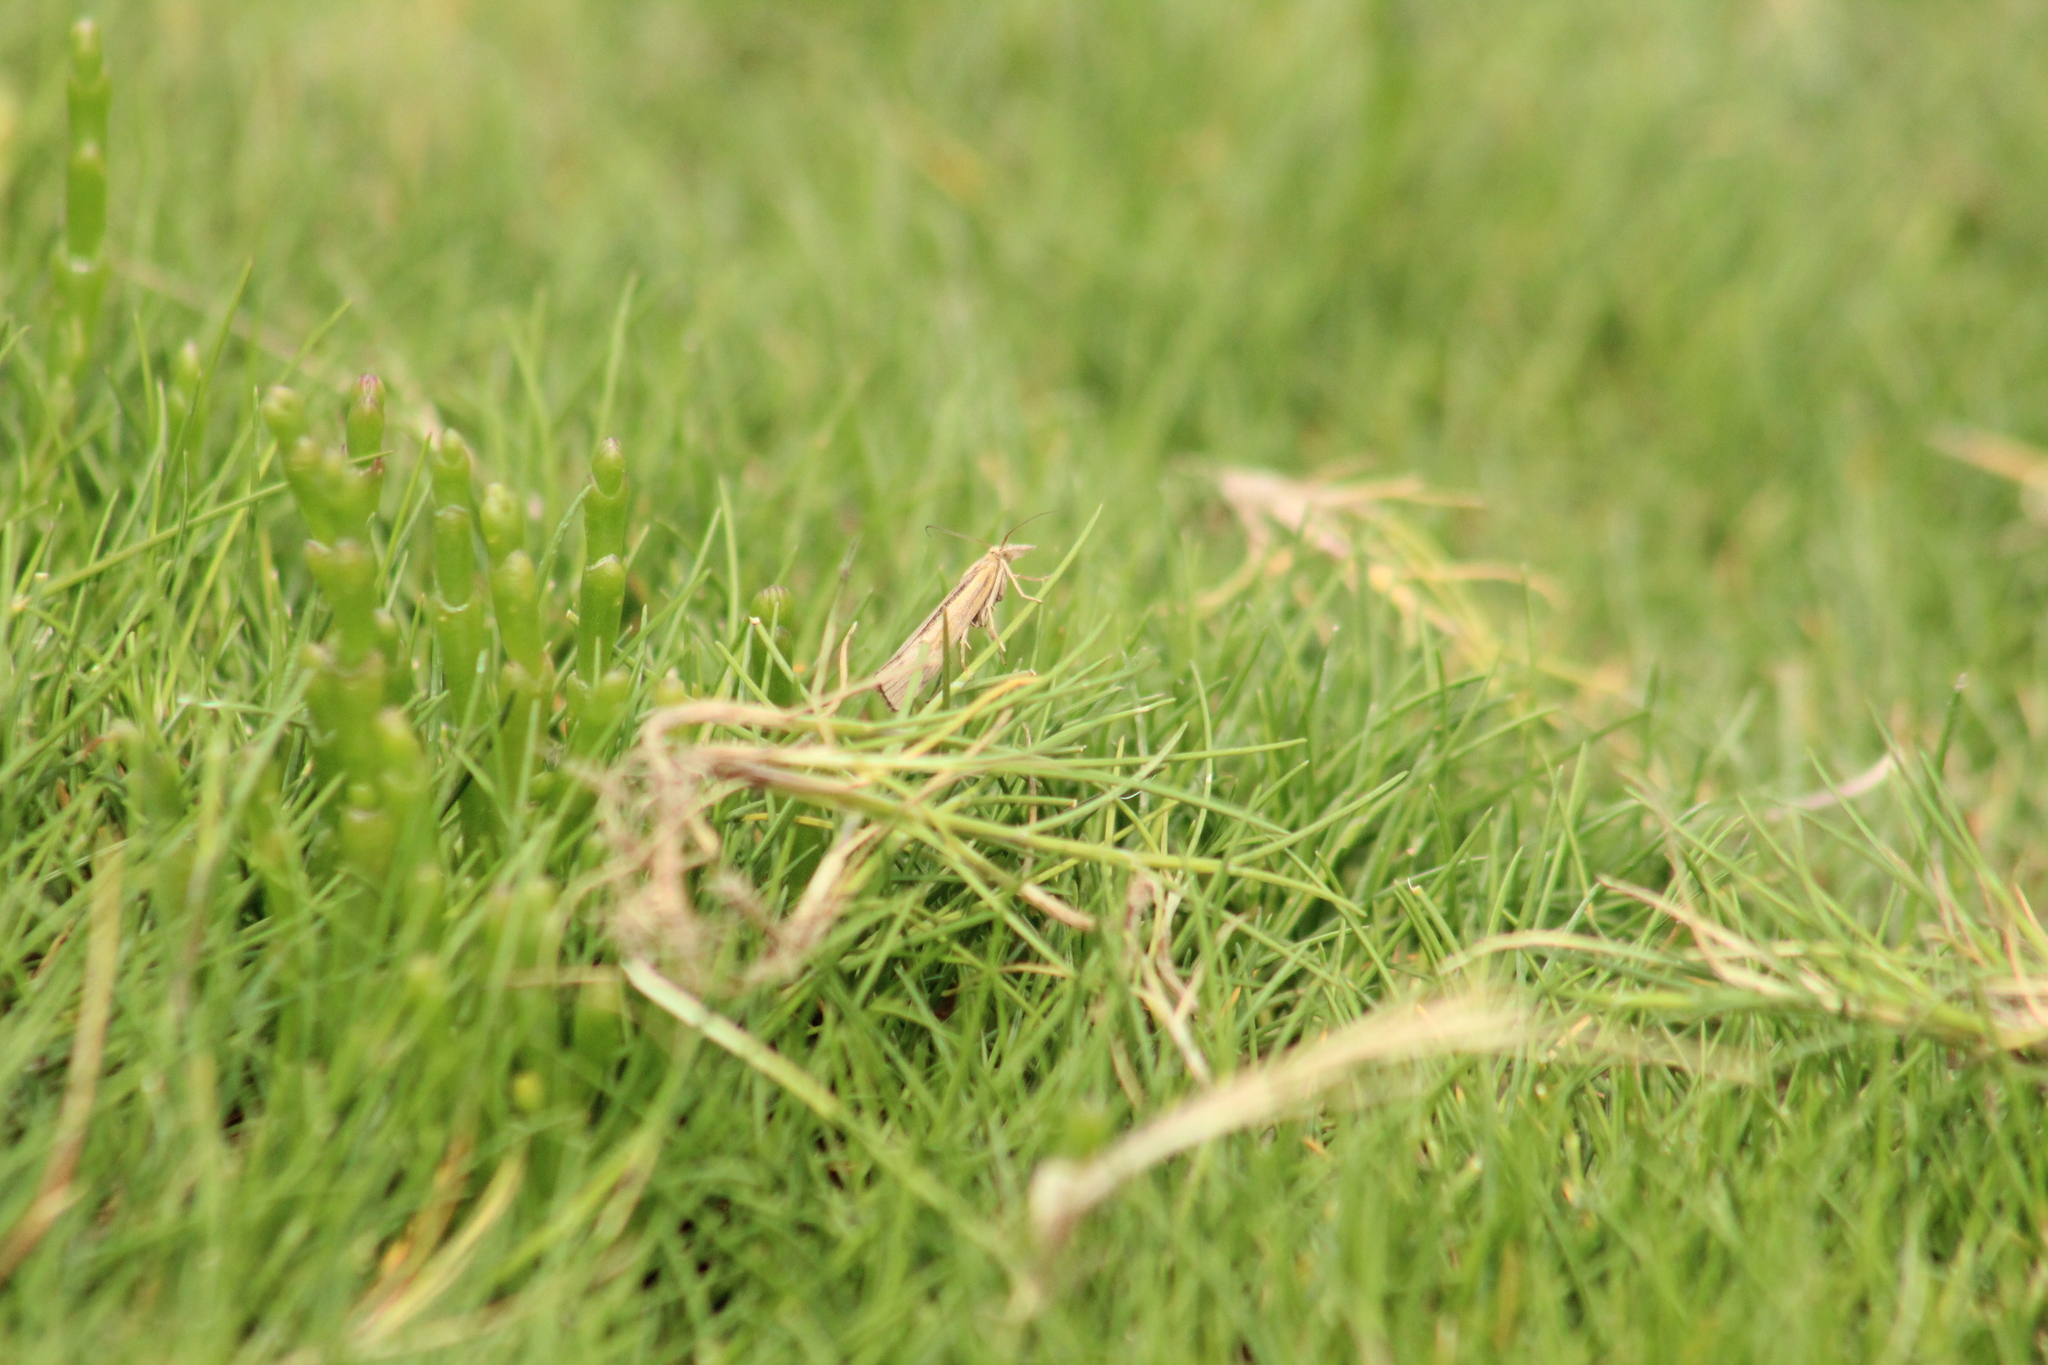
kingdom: Animalia
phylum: Arthropoda
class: Insecta
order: Lepidoptera
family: Crambidae
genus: Agriphila
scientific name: Agriphila inquinatella
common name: Barred grass-veneer
